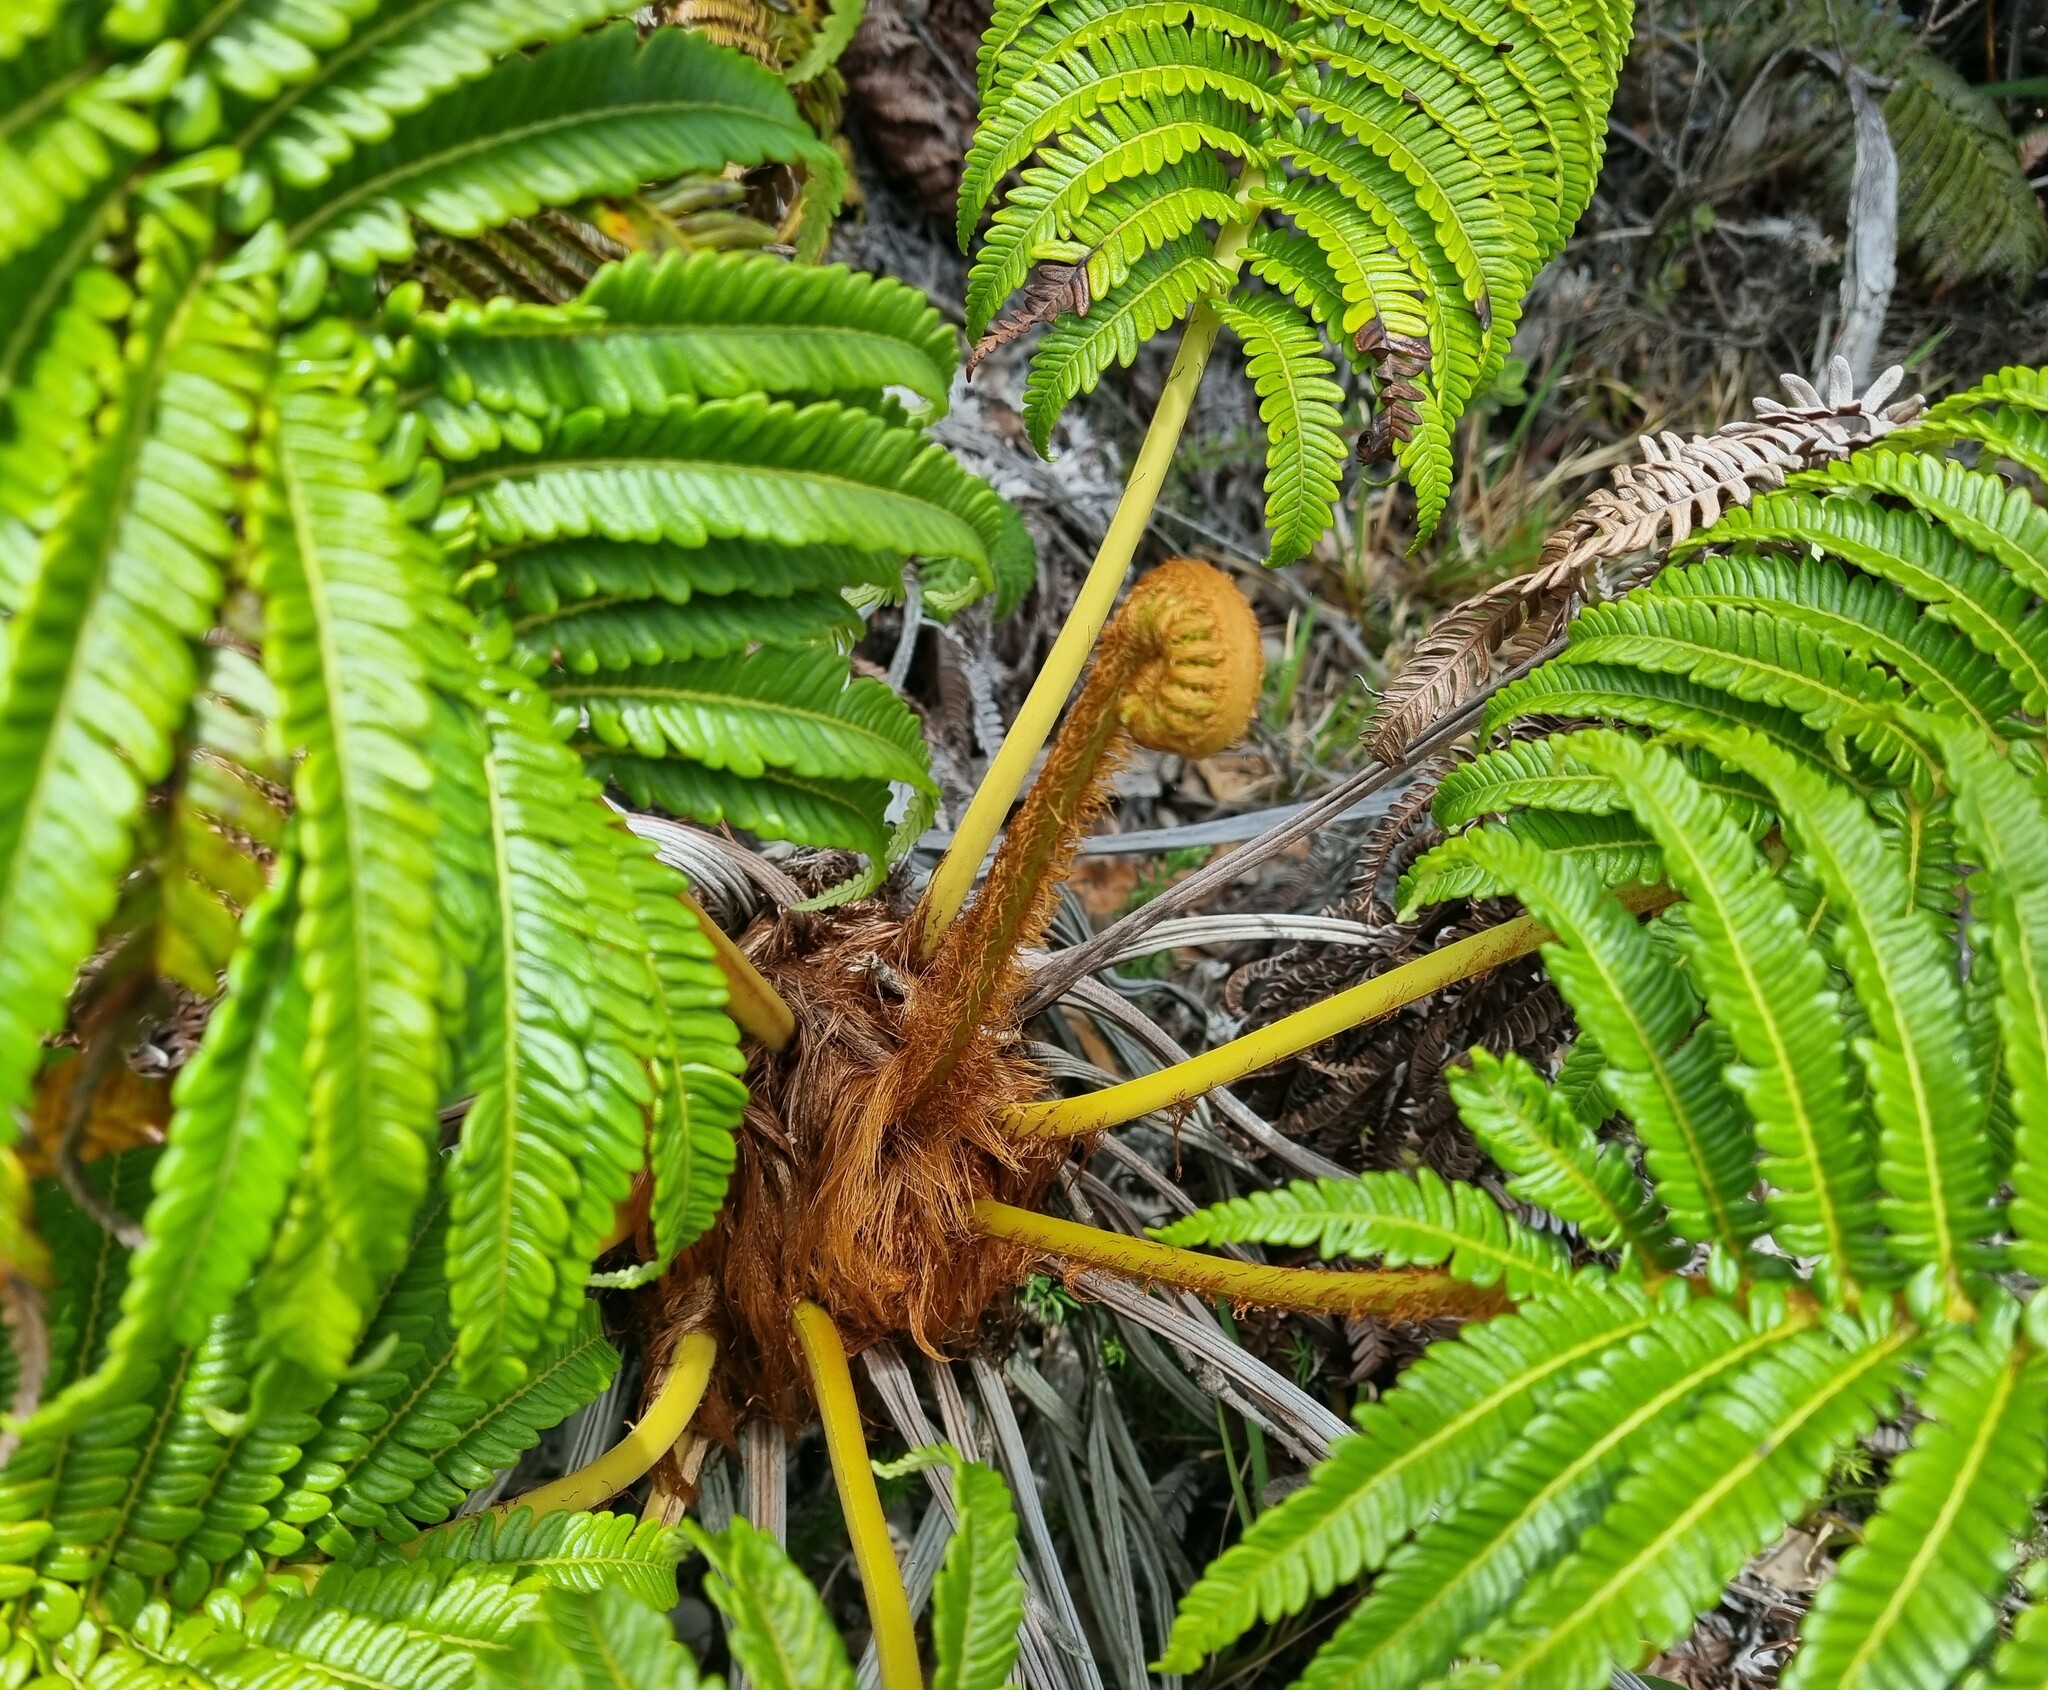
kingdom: Plantae
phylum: Tracheophyta
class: Polypodiopsida
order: Polypodiales
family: Blechnaceae
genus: Sadleria
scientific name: Sadleria cyatheoides
